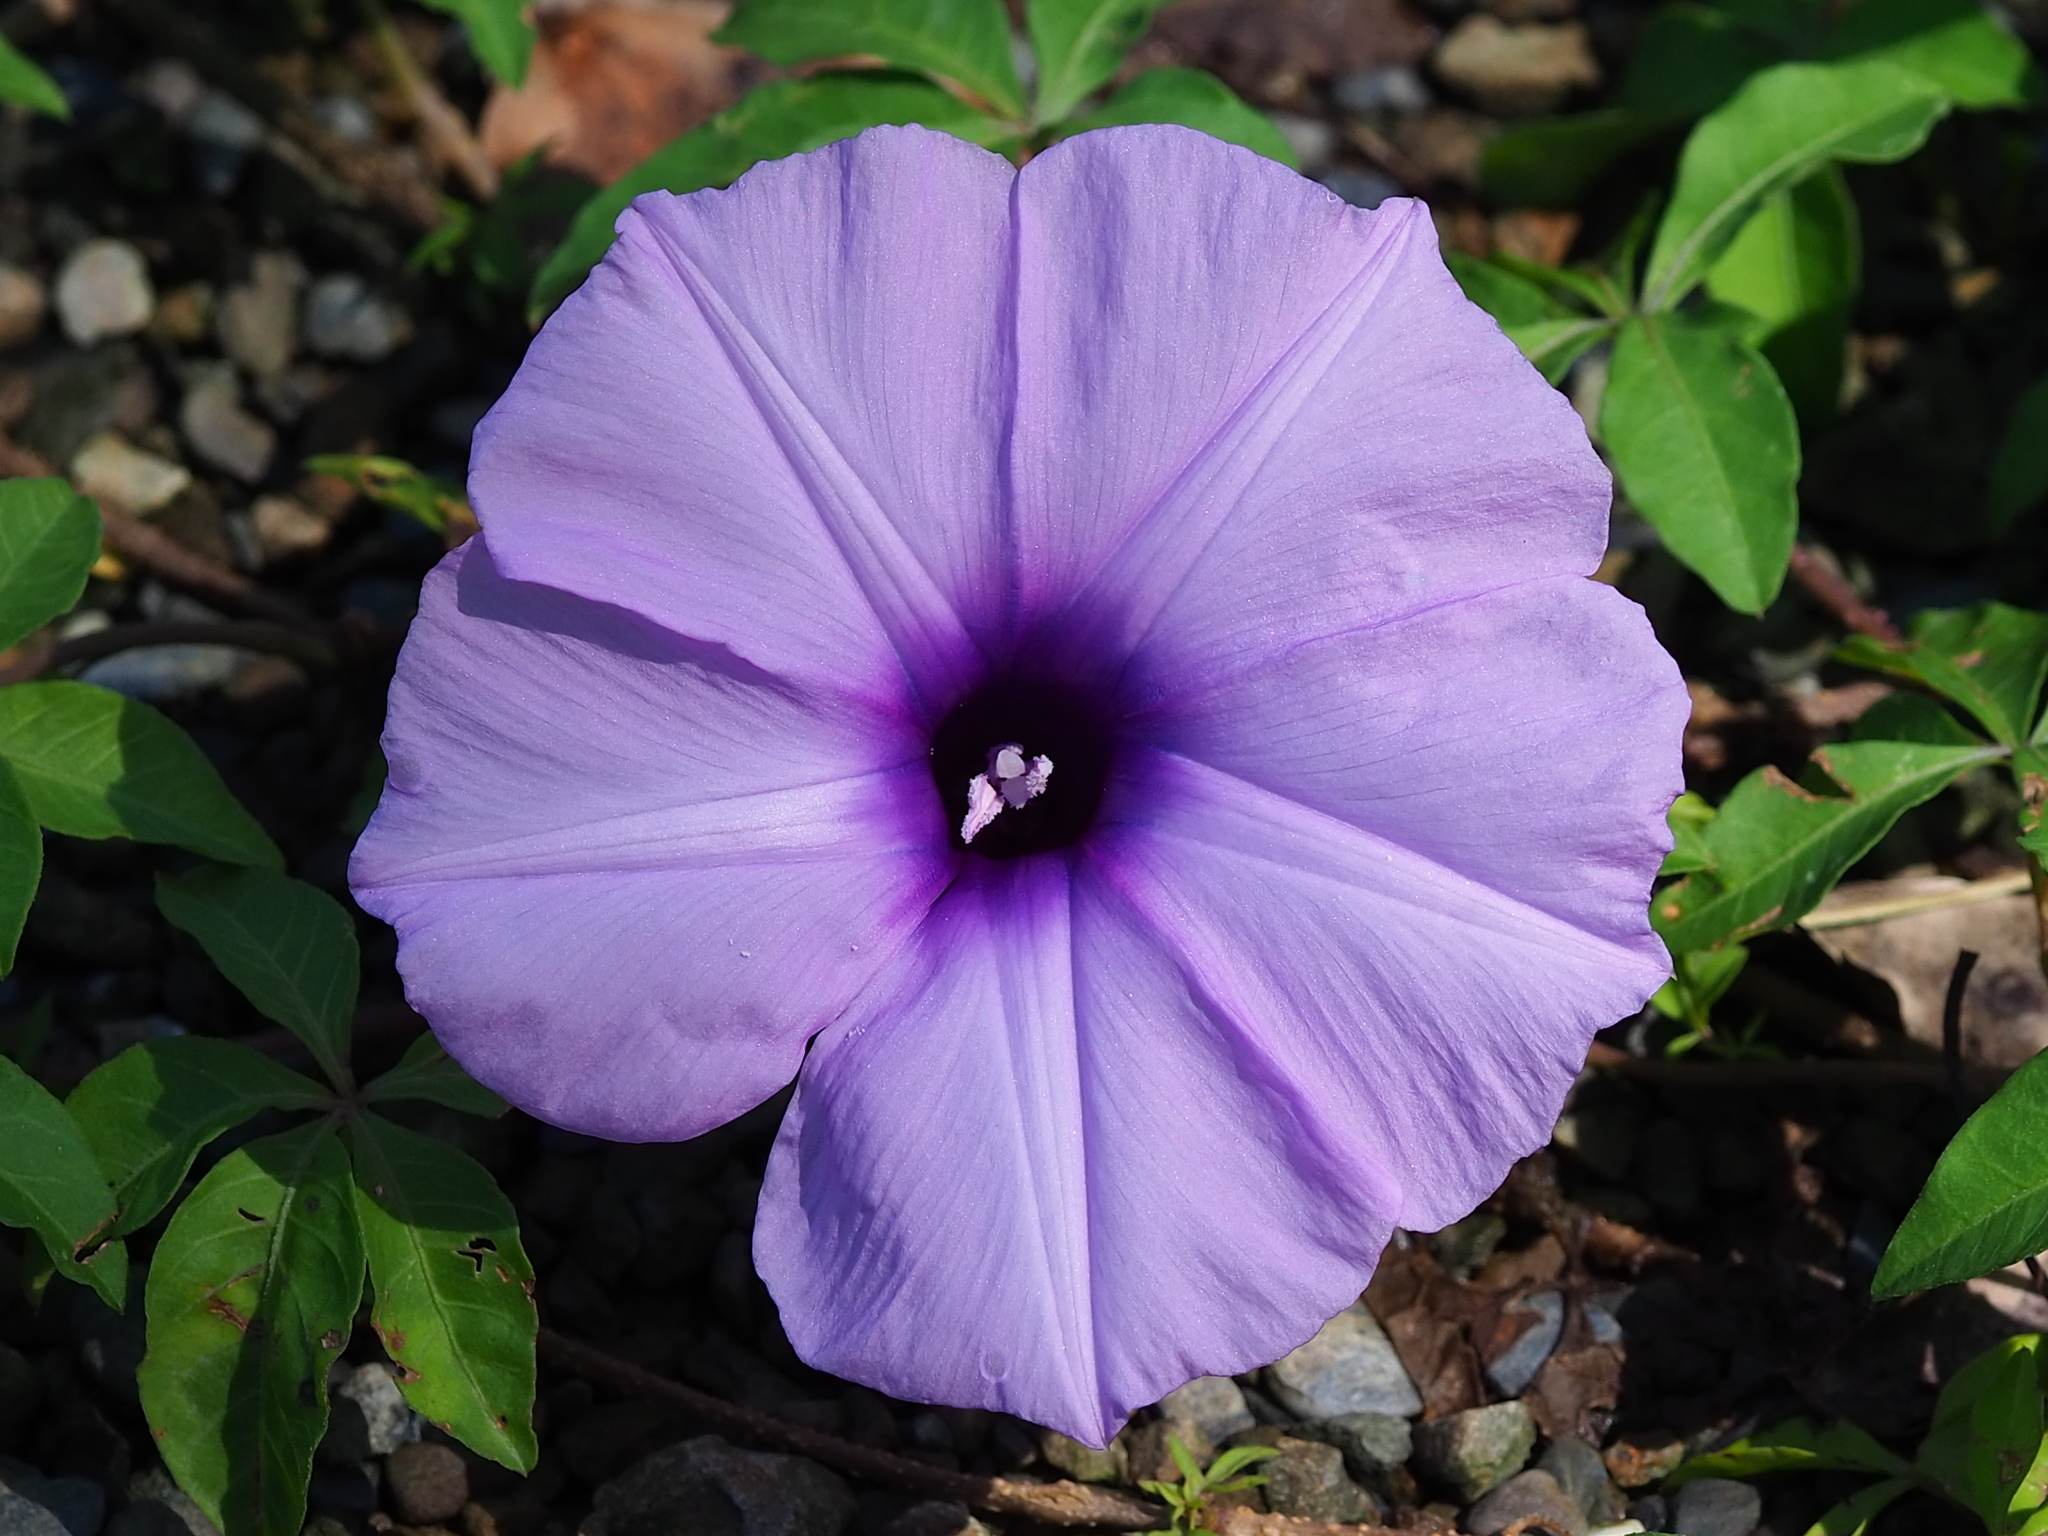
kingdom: Plantae
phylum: Tracheophyta
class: Magnoliopsida
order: Solanales
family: Convolvulaceae
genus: Ipomoea
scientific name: Ipomoea cairica
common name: Mile a minute vine
